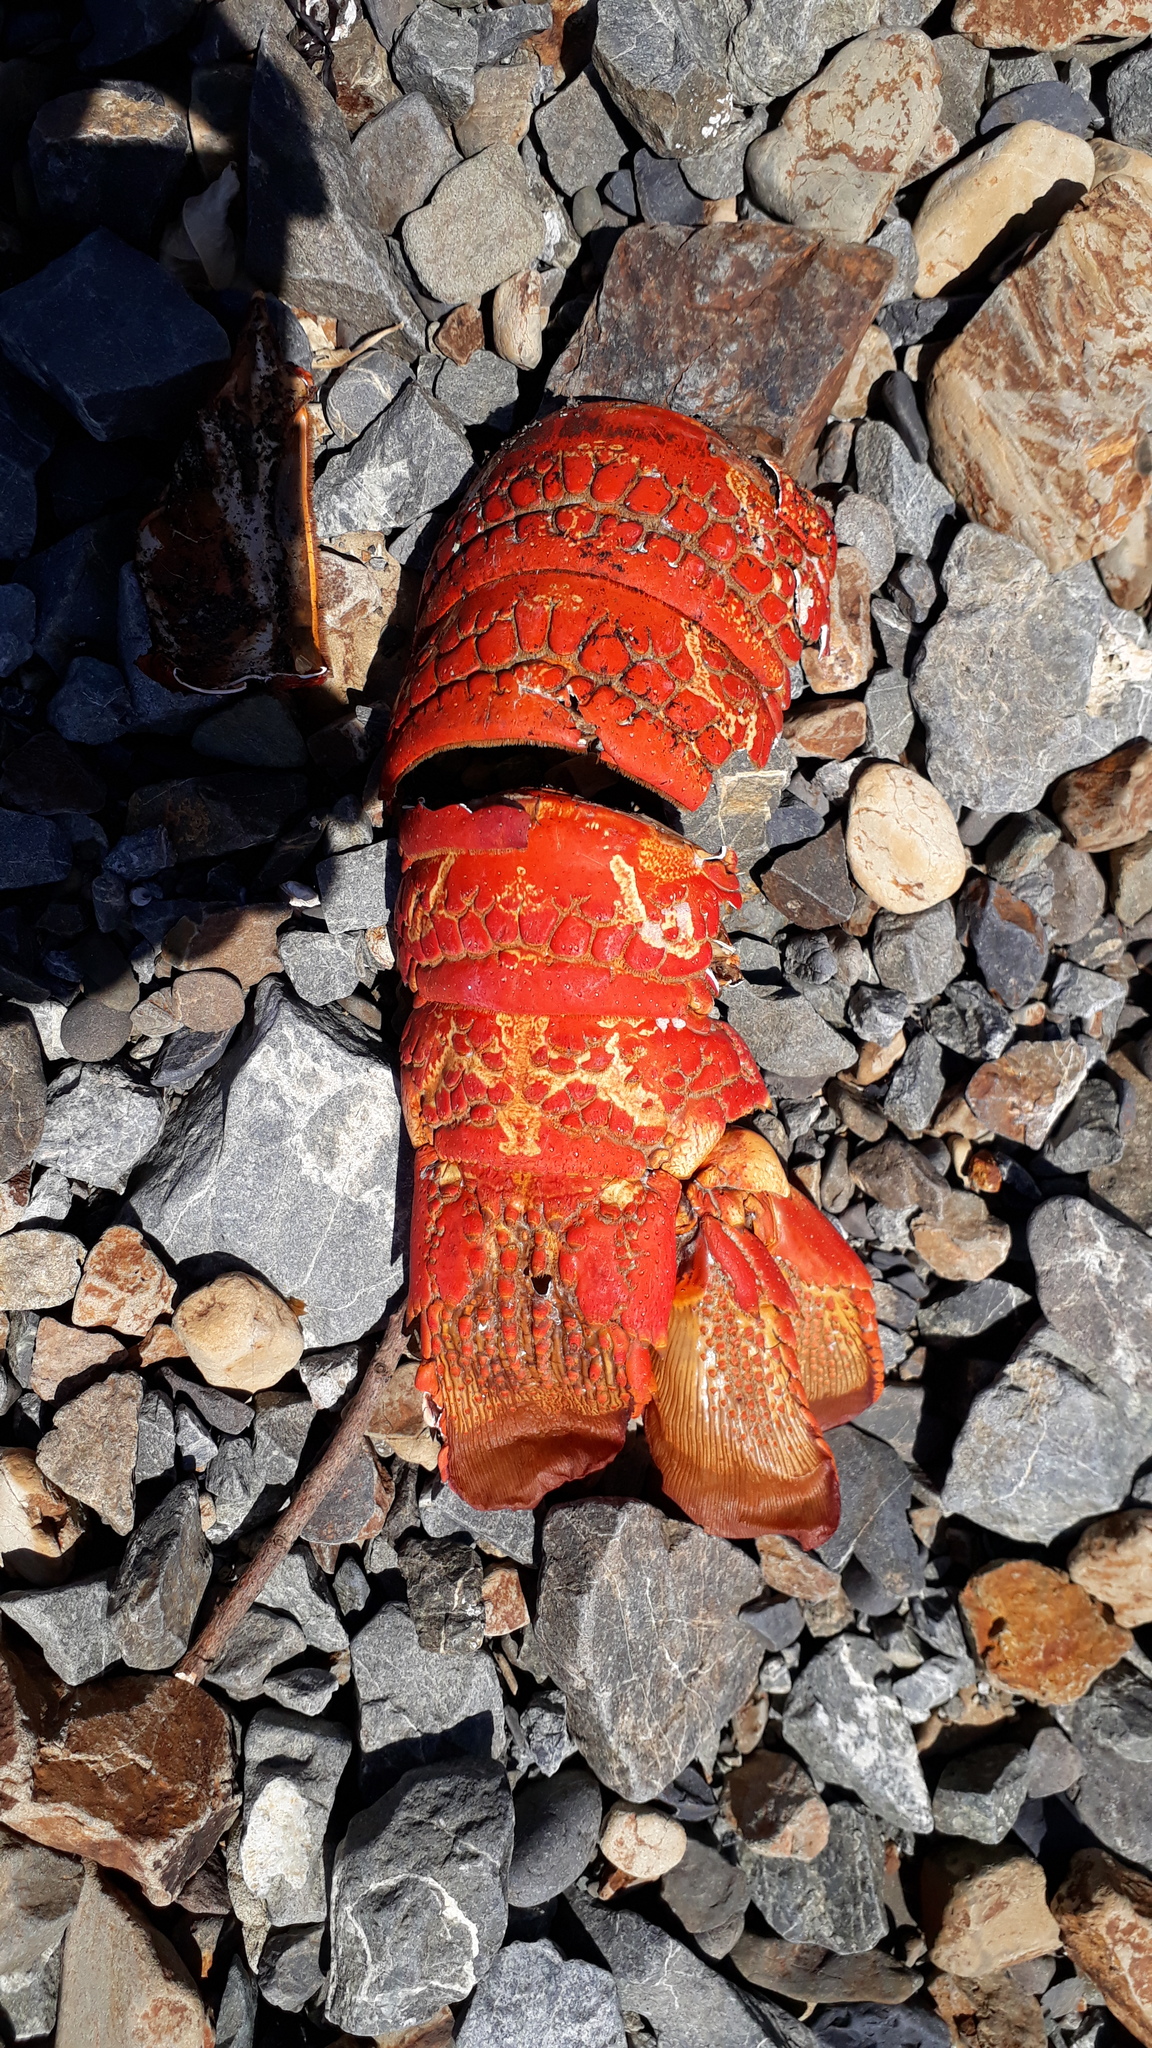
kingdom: Animalia
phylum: Arthropoda
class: Malacostraca
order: Decapoda
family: Palinuridae
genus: Jasus
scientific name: Jasus edwardsii
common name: Red rock lobster
